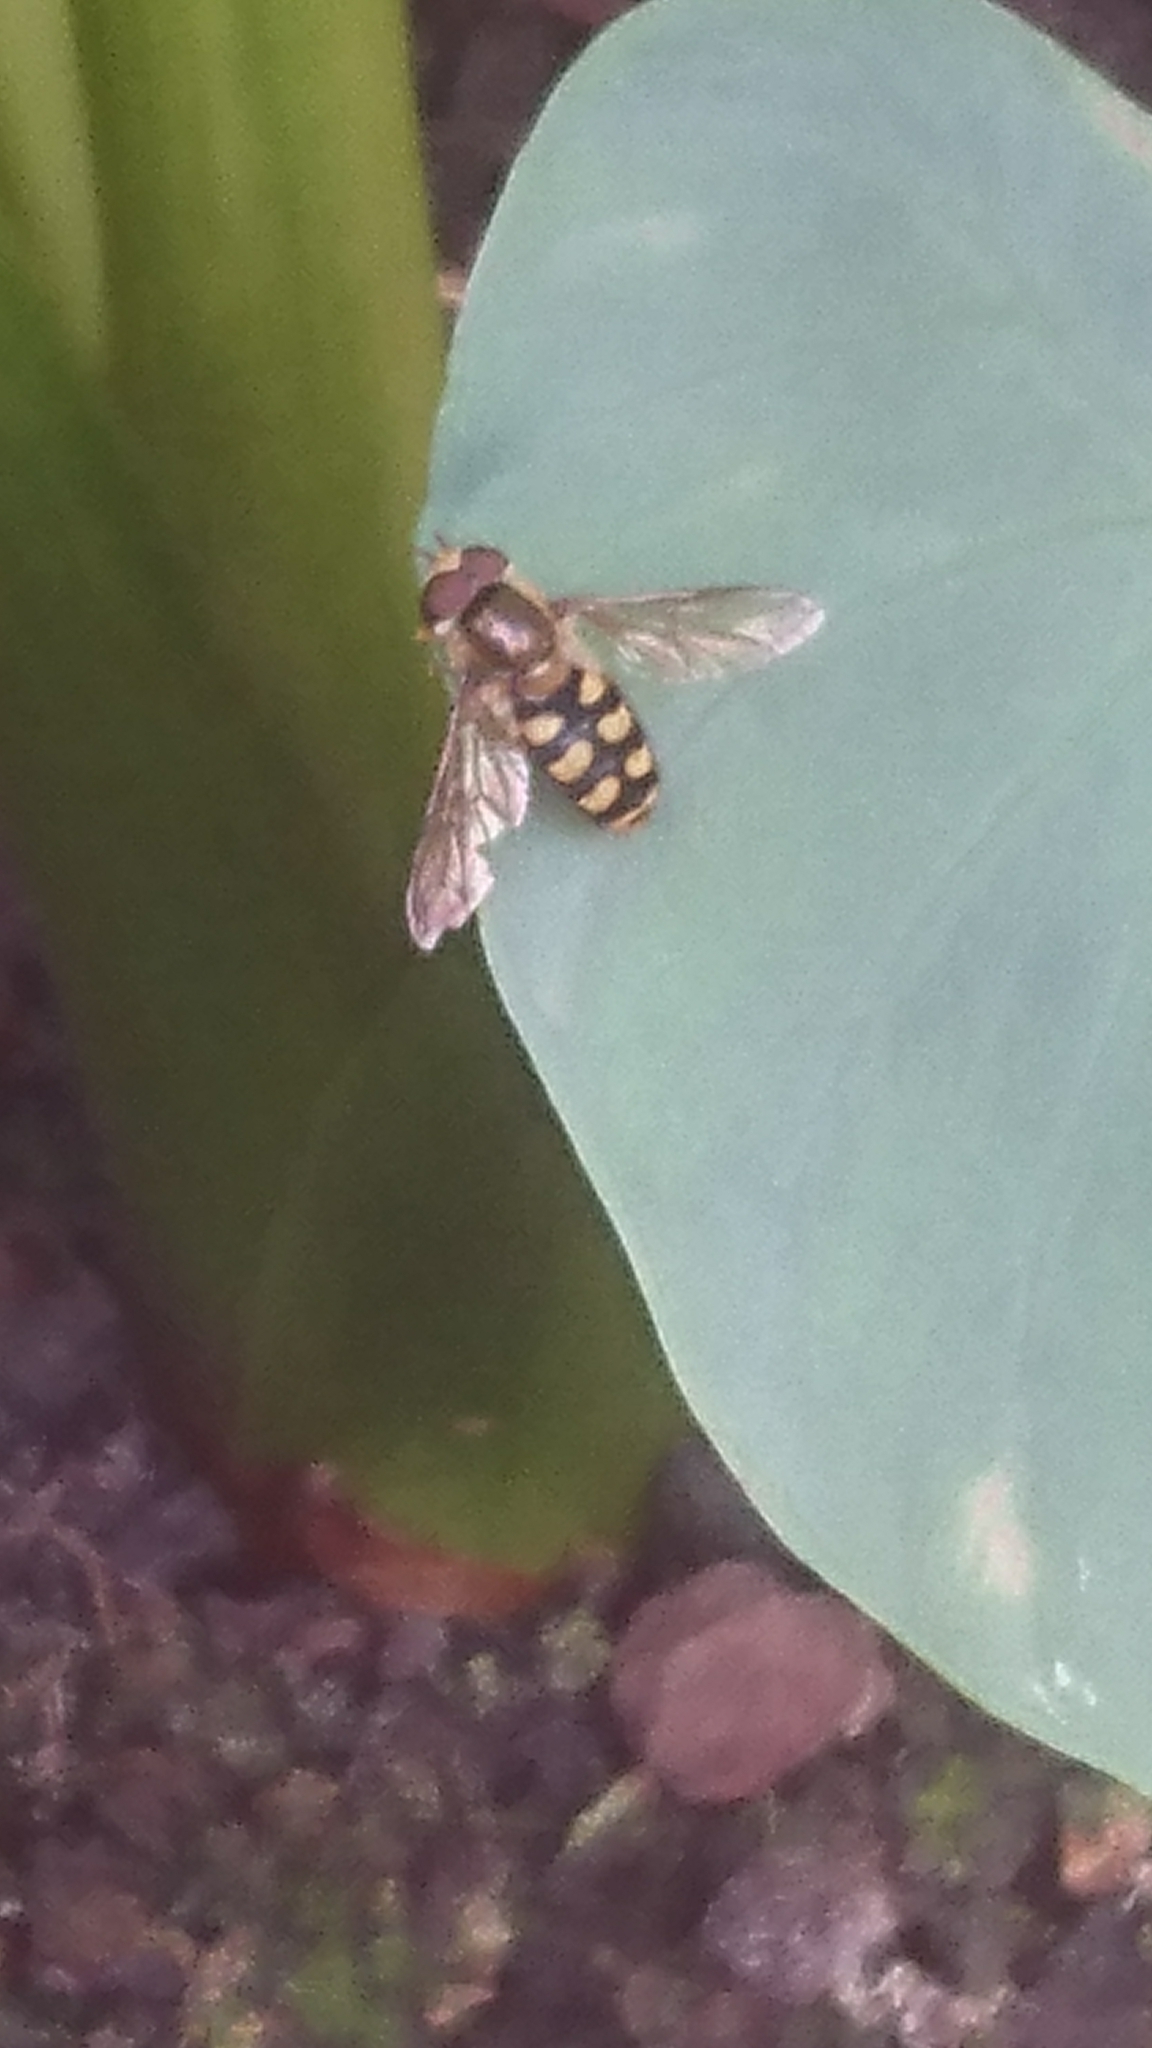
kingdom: Animalia
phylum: Arthropoda
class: Insecta
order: Diptera
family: Syrphidae
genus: Eupeodes
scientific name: Eupeodes
